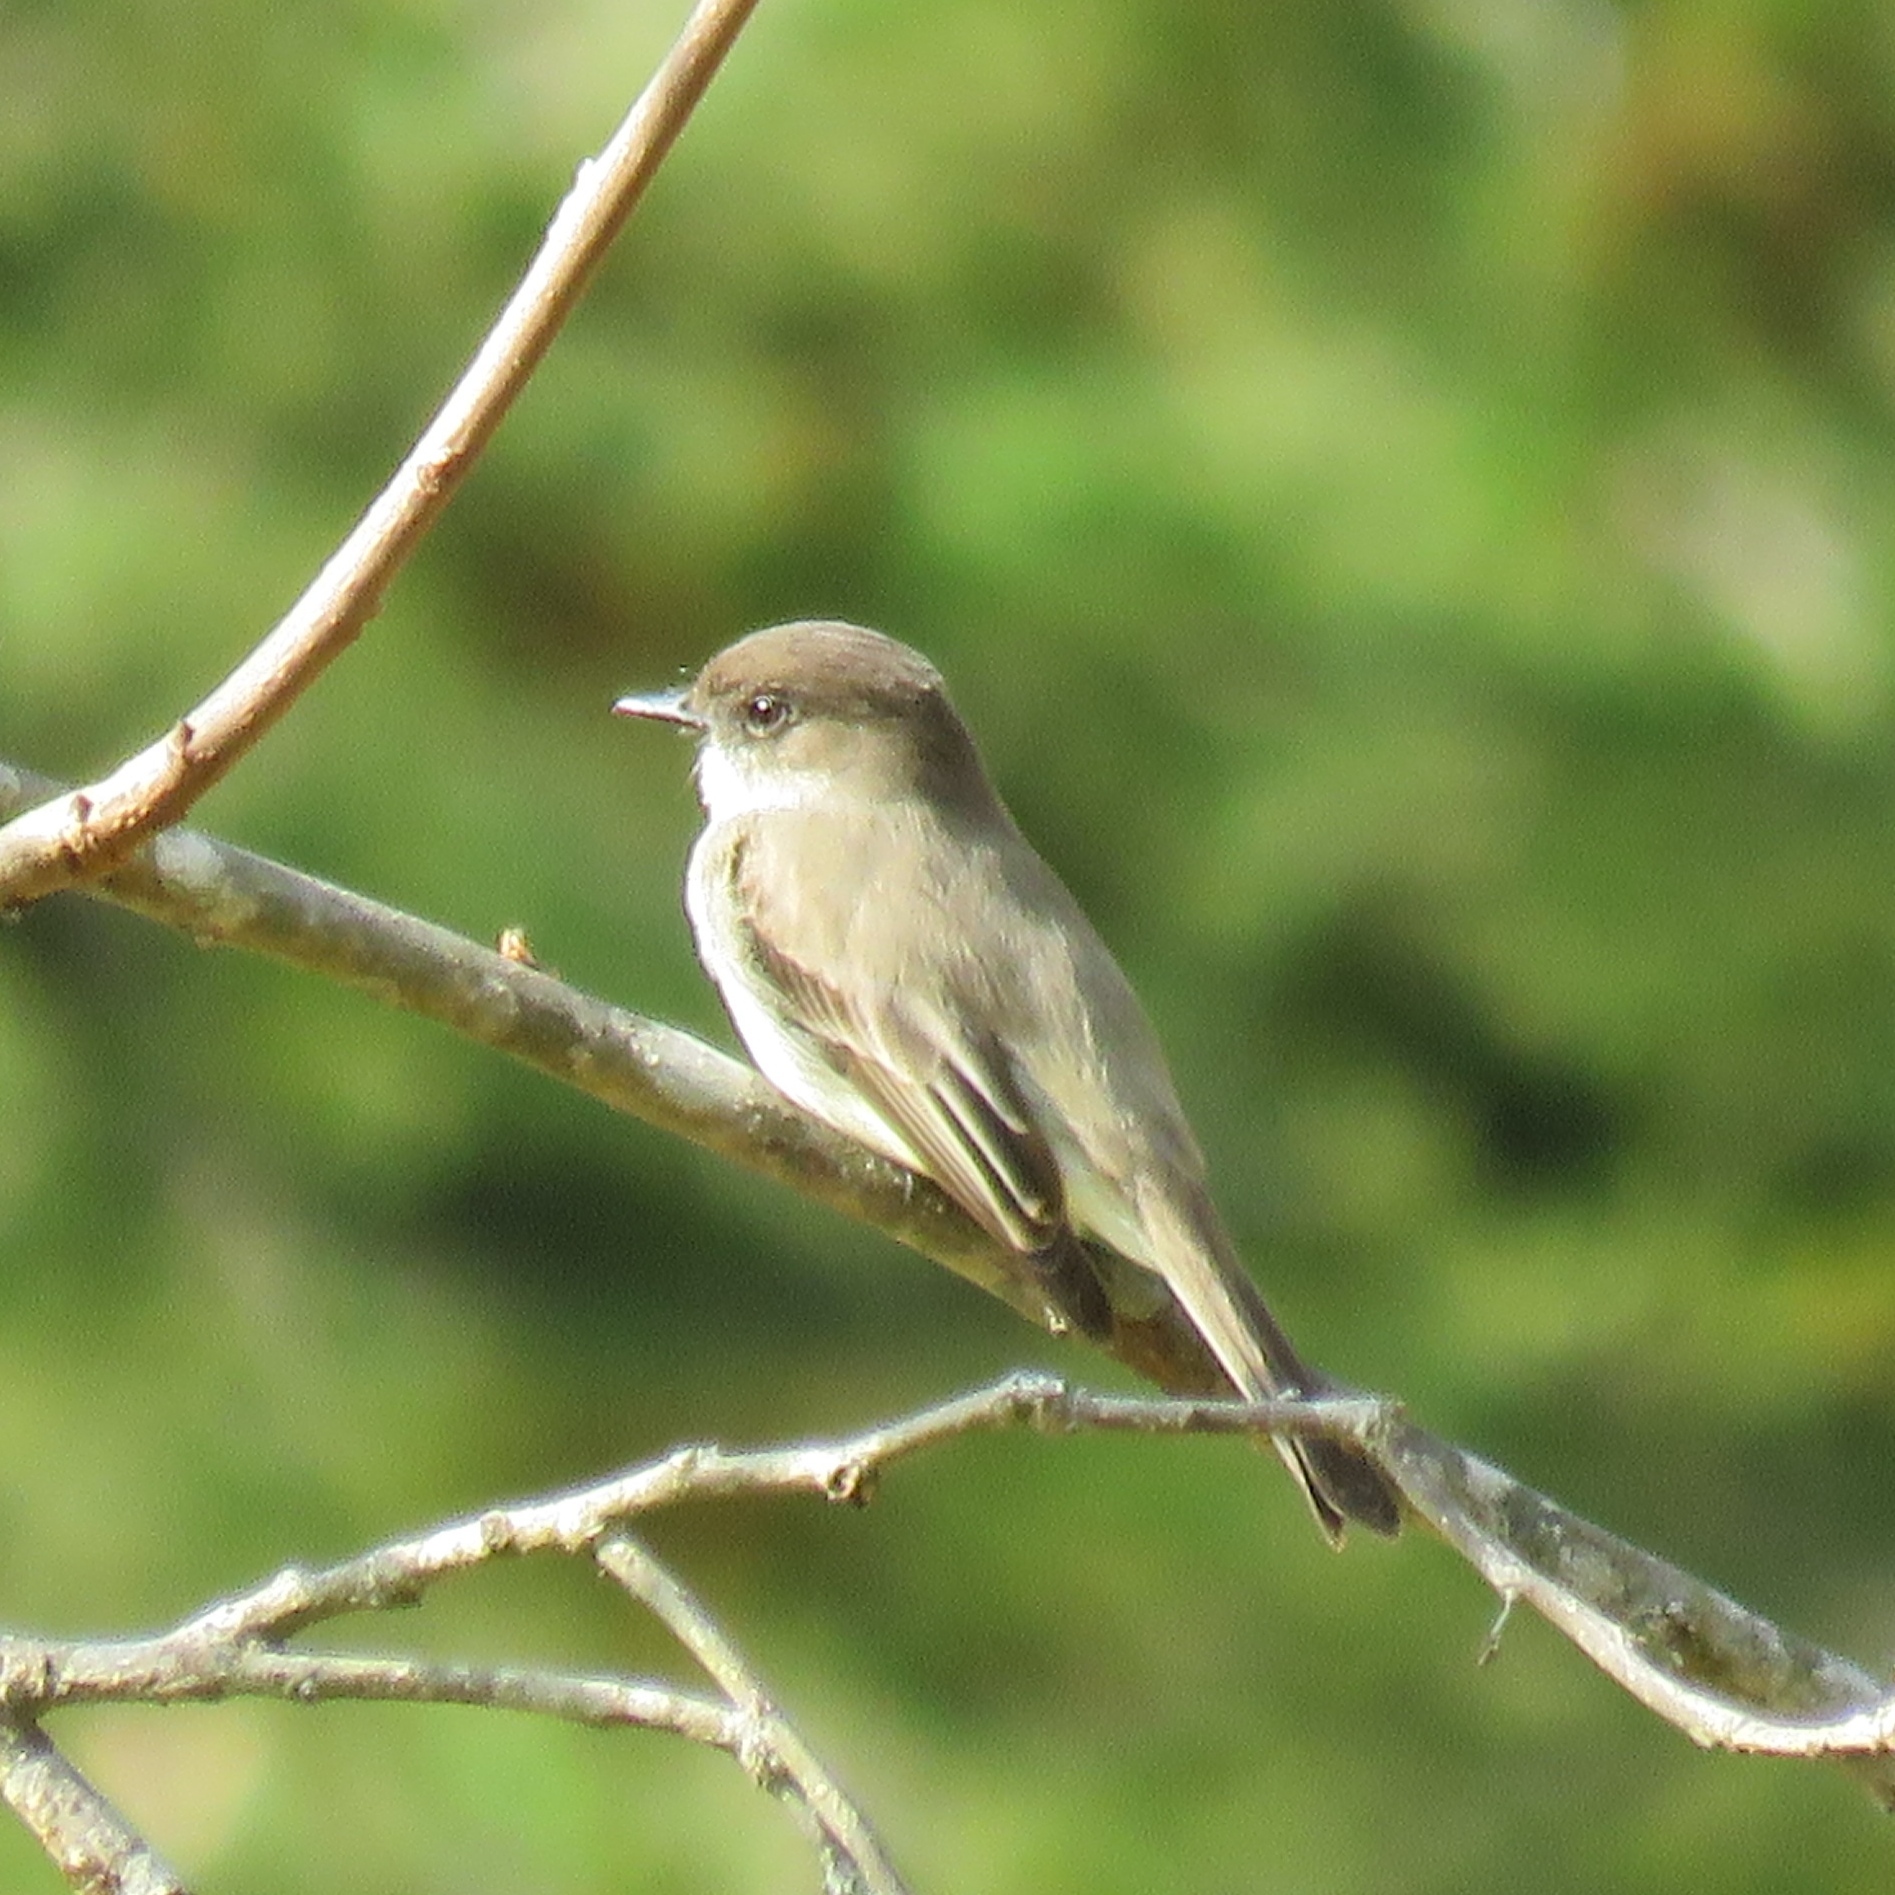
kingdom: Animalia
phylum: Chordata
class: Aves
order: Passeriformes
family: Tyrannidae
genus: Sayornis
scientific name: Sayornis phoebe
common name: Eastern phoebe
